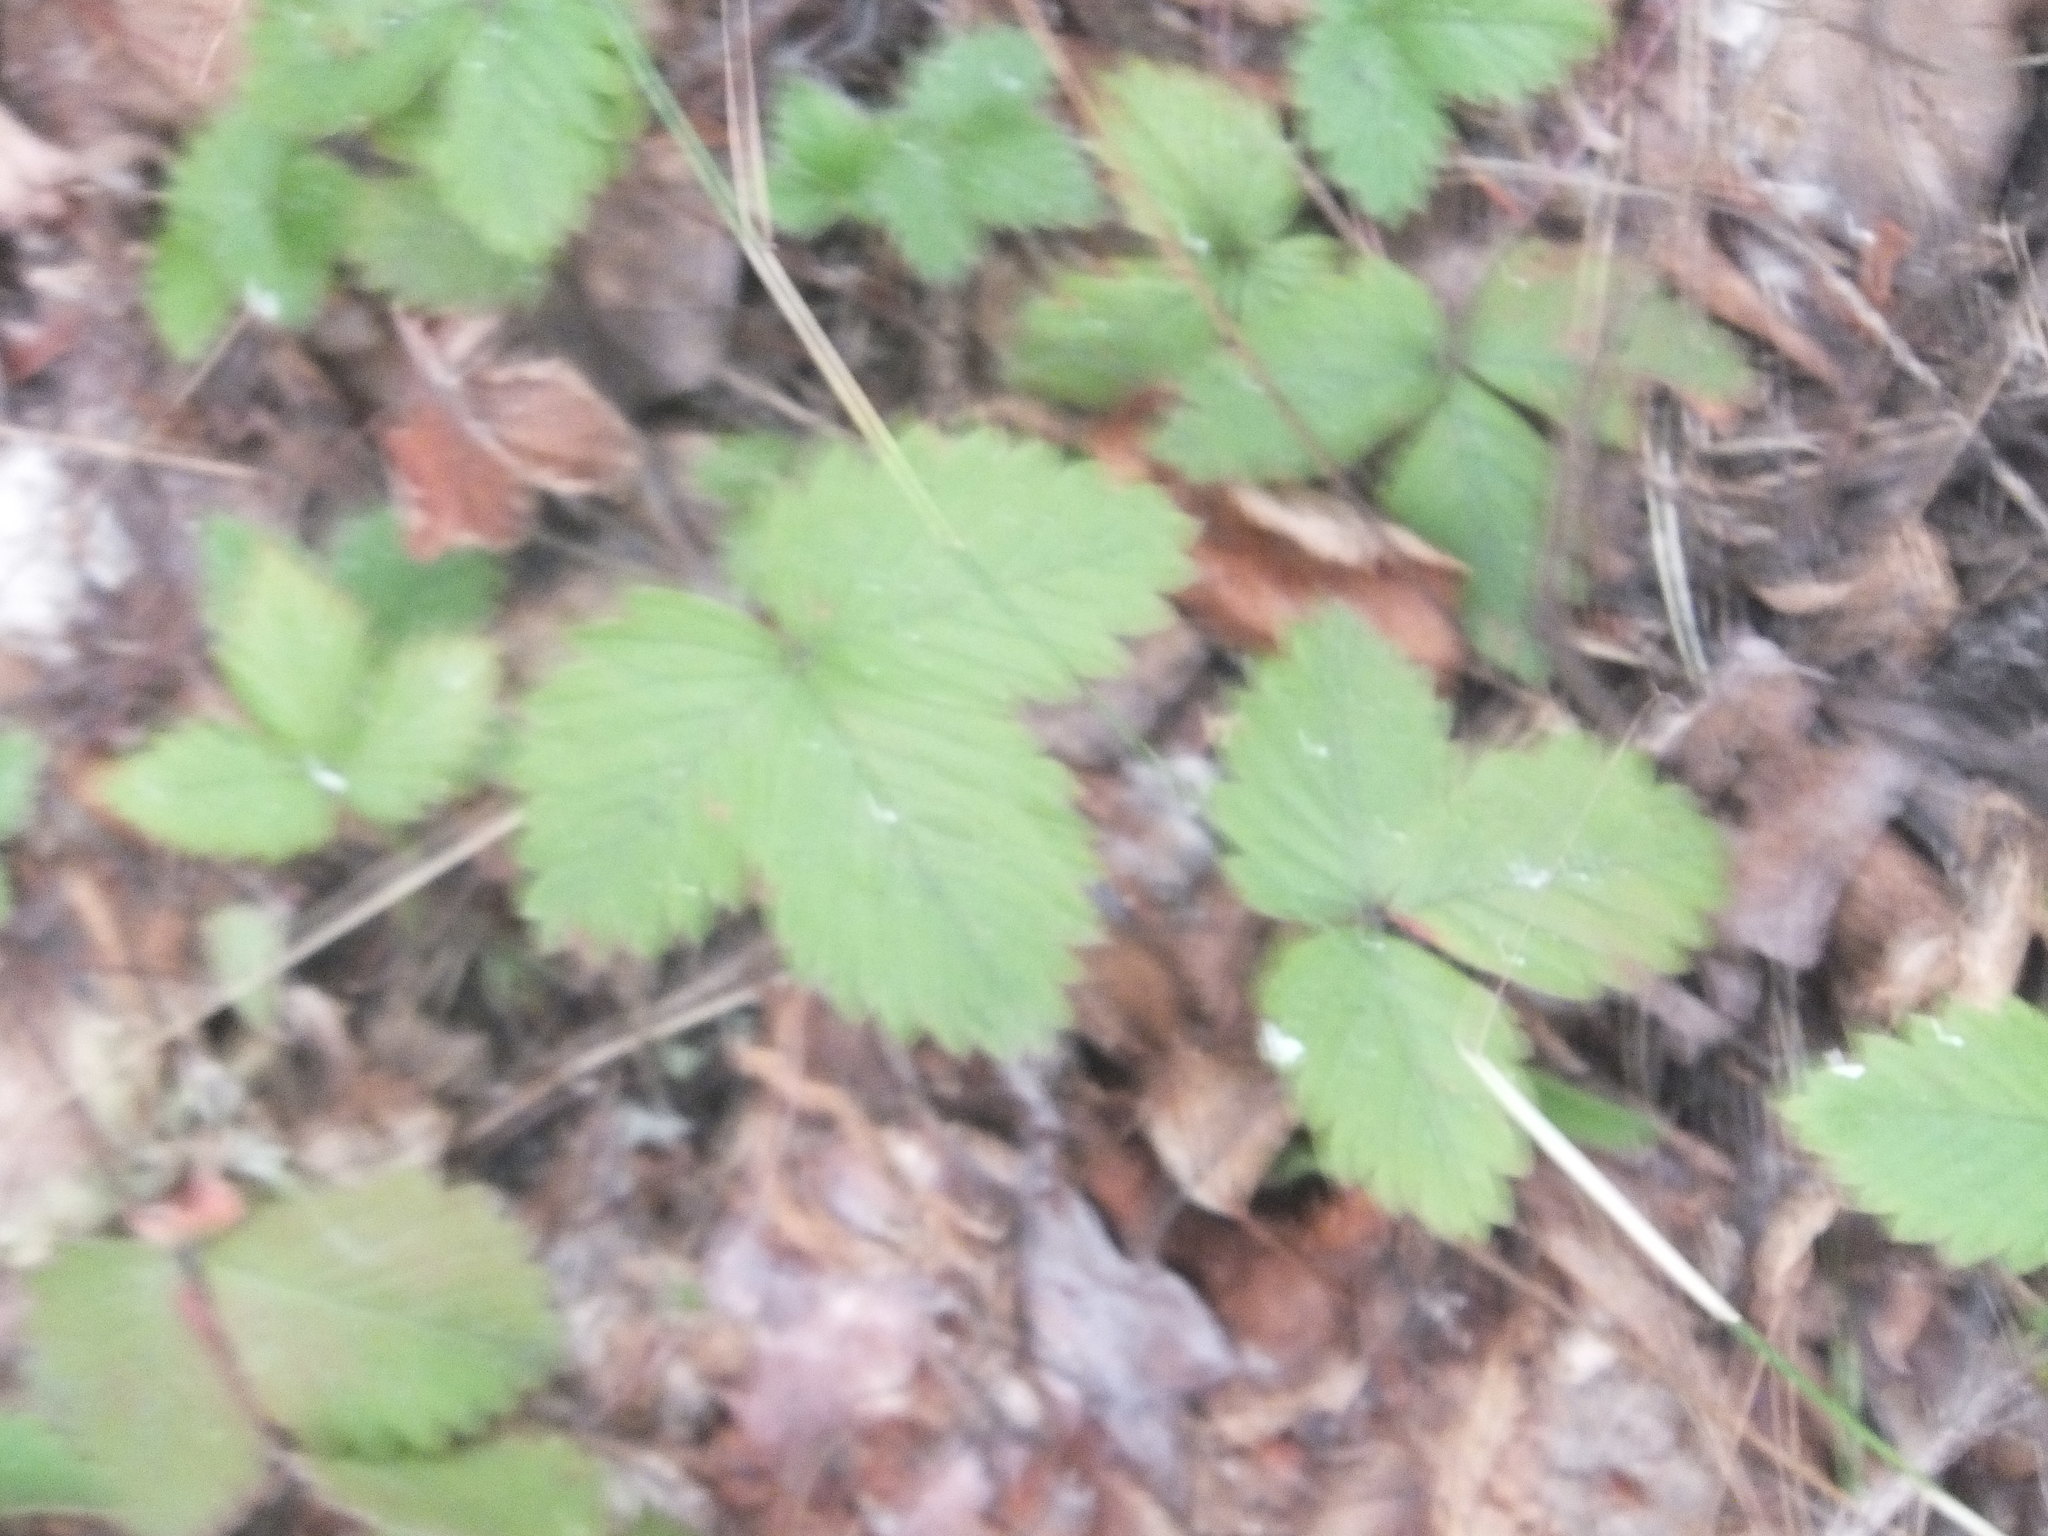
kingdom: Plantae
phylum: Tracheophyta
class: Magnoliopsida
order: Rosales
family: Rosaceae
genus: Fragaria
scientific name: Fragaria vesca
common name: Wild strawberry
